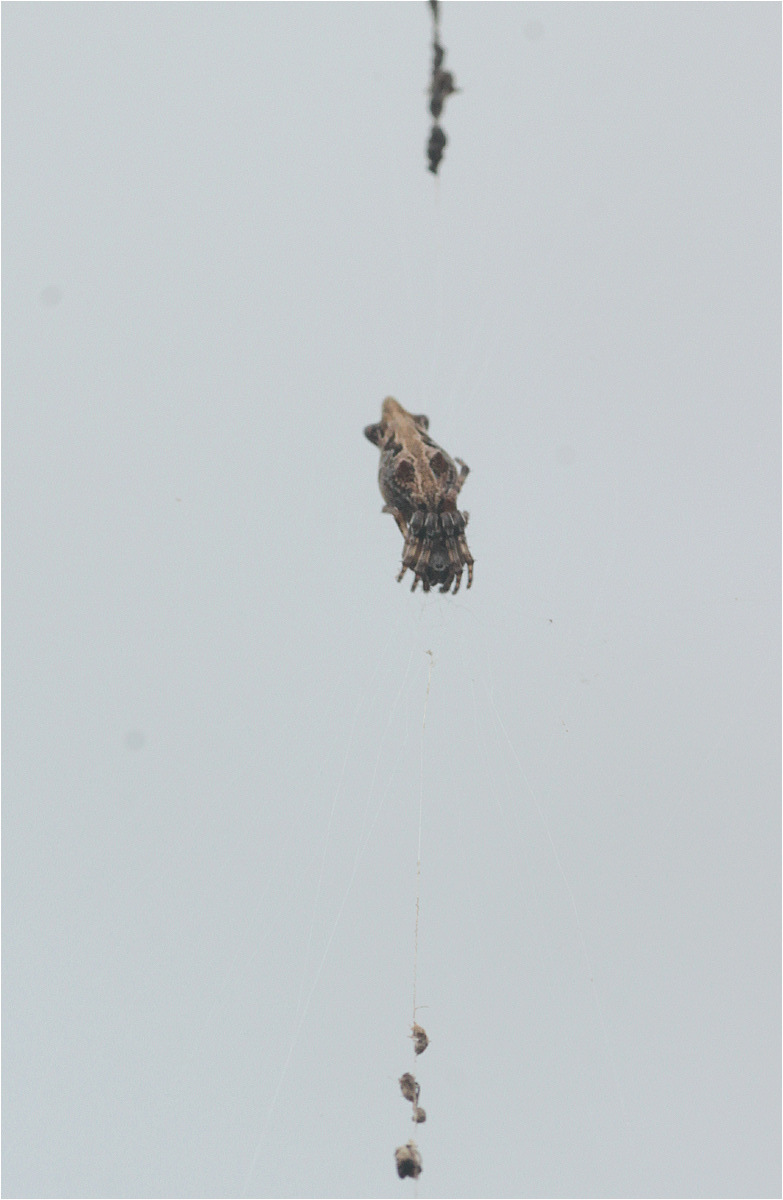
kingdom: Animalia
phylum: Arthropoda
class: Arachnida
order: Araneae
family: Araneidae
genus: Cyclosa
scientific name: Cyclosa bifurcata
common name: Orb weavers
